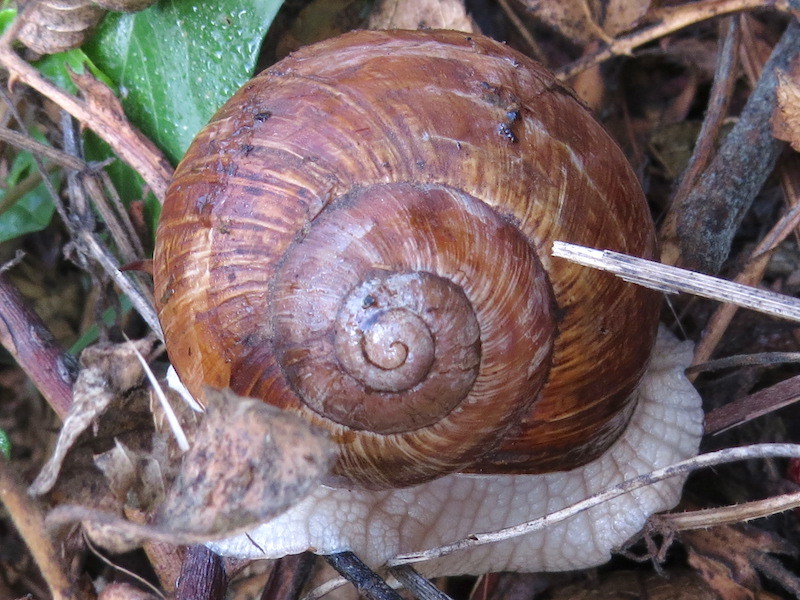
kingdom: Animalia
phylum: Mollusca
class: Gastropoda
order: Stylommatophora
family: Helicidae
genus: Helix
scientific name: Helix pomatia
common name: Roman snail
